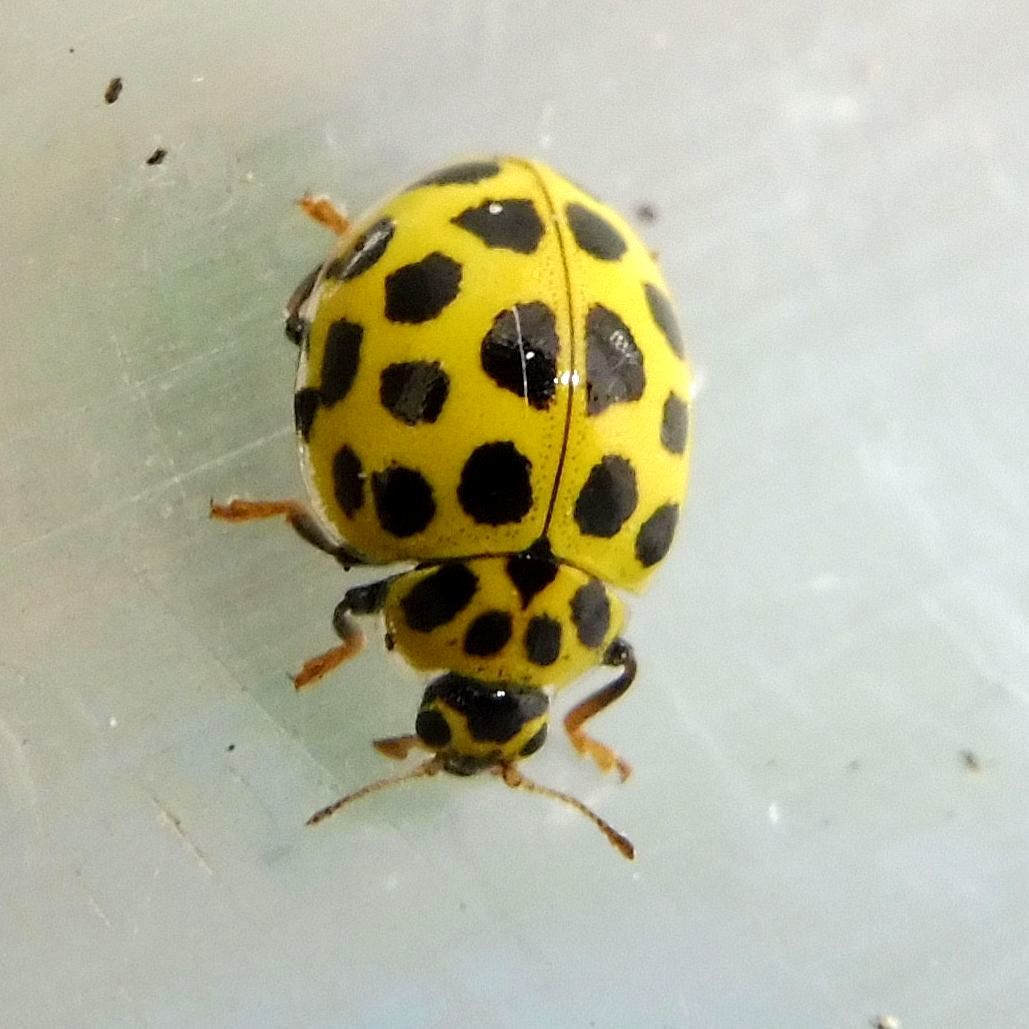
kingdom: Animalia
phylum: Arthropoda
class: Insecta
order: Coleoptera
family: Coccinellidae
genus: Psyllobora
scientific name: Psyllobora vigintiduopunctata
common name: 22-spot ladybird
